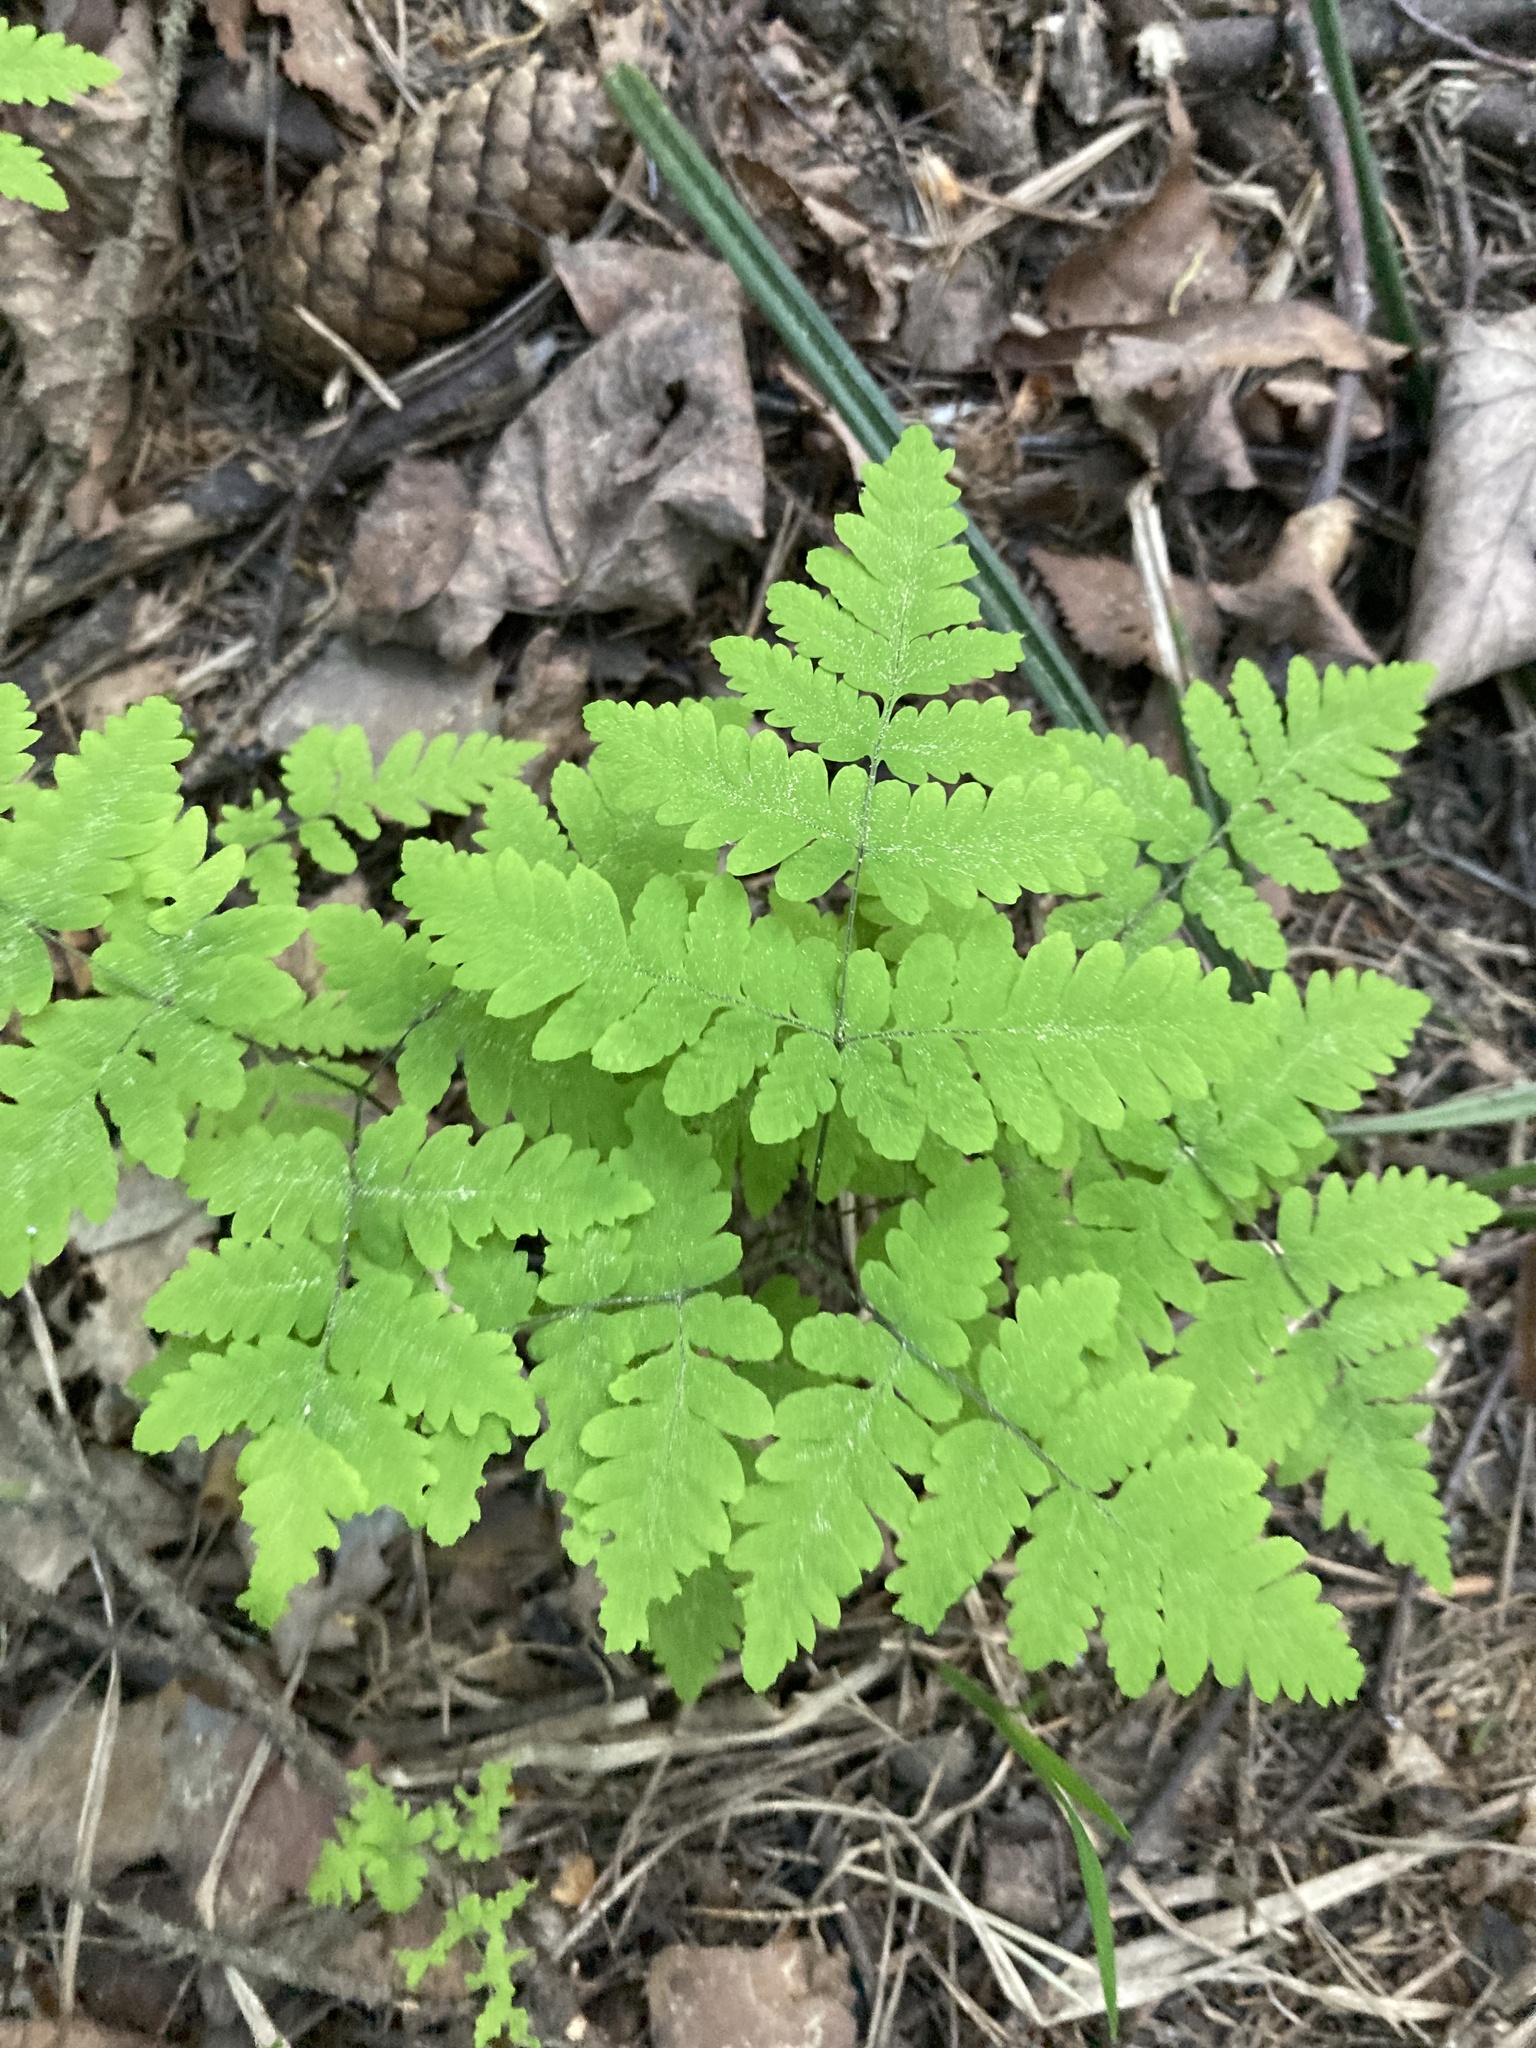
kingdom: Plantae
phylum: Tracheophyta
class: Polypodiopsida
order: Polypodiales
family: Cystopteridaceae
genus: Gymnocarpium
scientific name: Gymnocarpium dryopteris
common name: Oak fern
